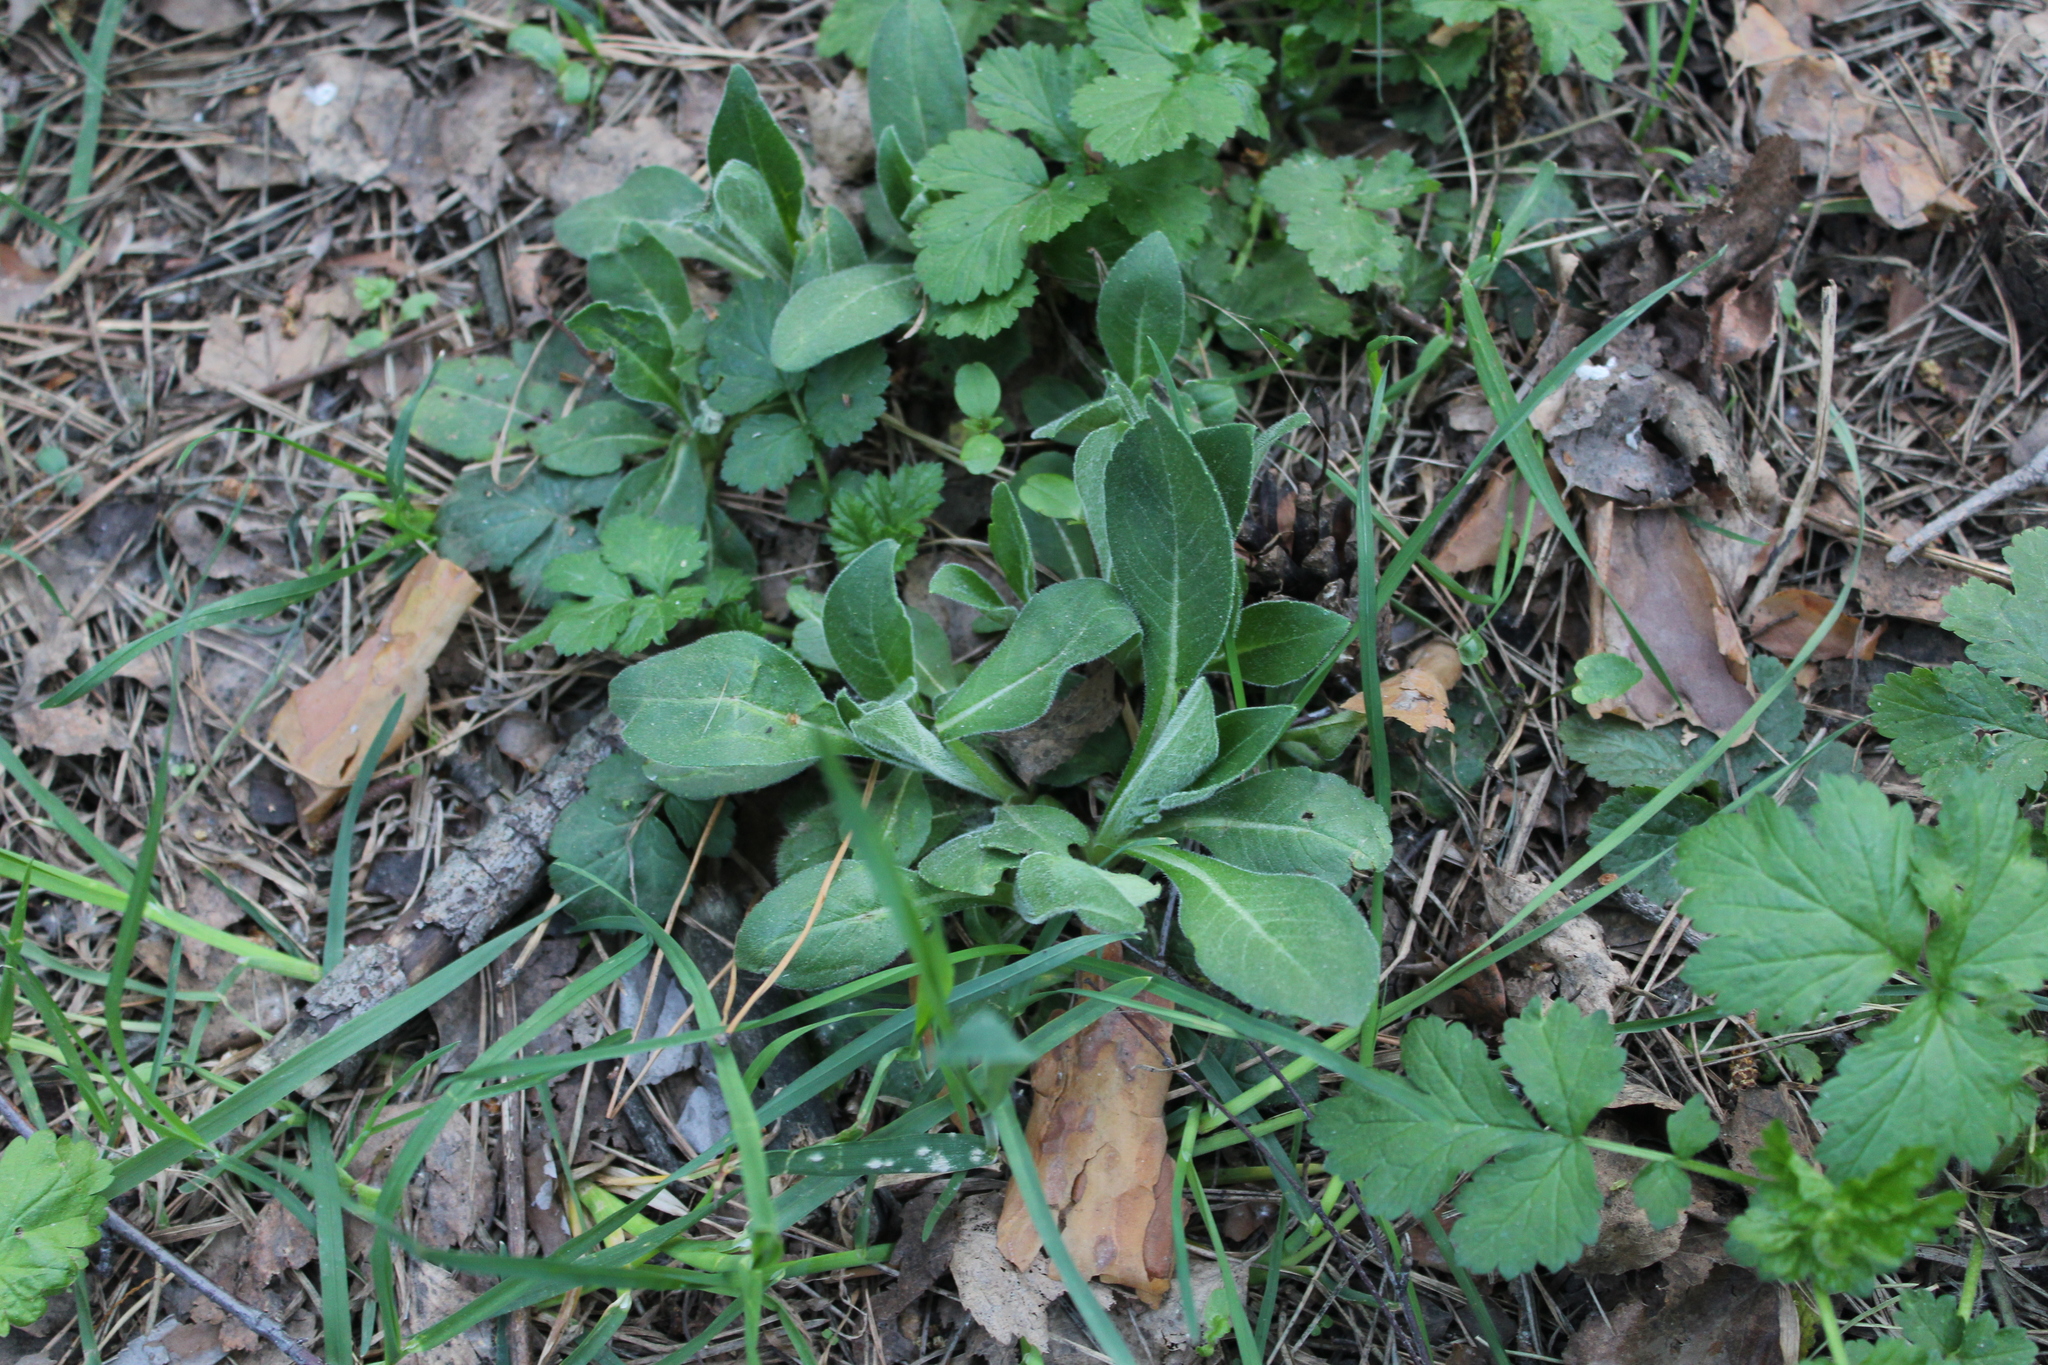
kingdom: Plantae
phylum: Tracheophyta
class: Magnoliopsida
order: Dipsacales
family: Caprifoliaceae
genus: Knautia
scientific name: Knautia arvensis
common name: Field scabiosa
